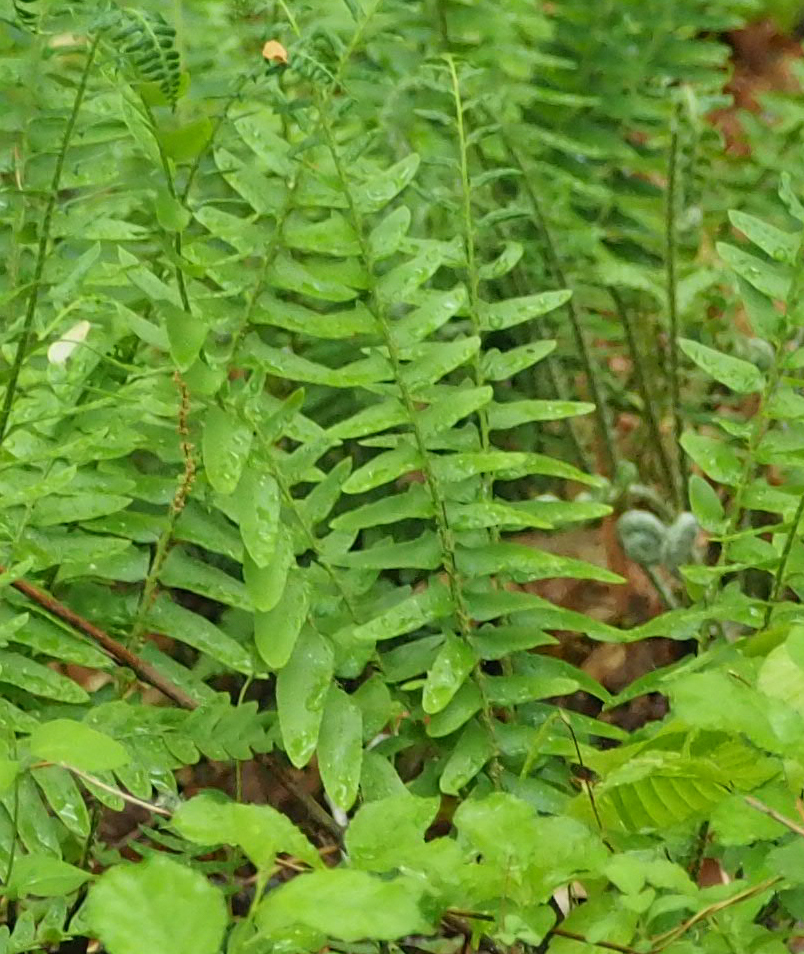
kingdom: Plantae
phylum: Tracheophyta
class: Polypodiopsida
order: Polypodiales
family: Dryopteridaceae
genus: Polystichum
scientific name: Polystichum acrostichoides
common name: Christmas fern
